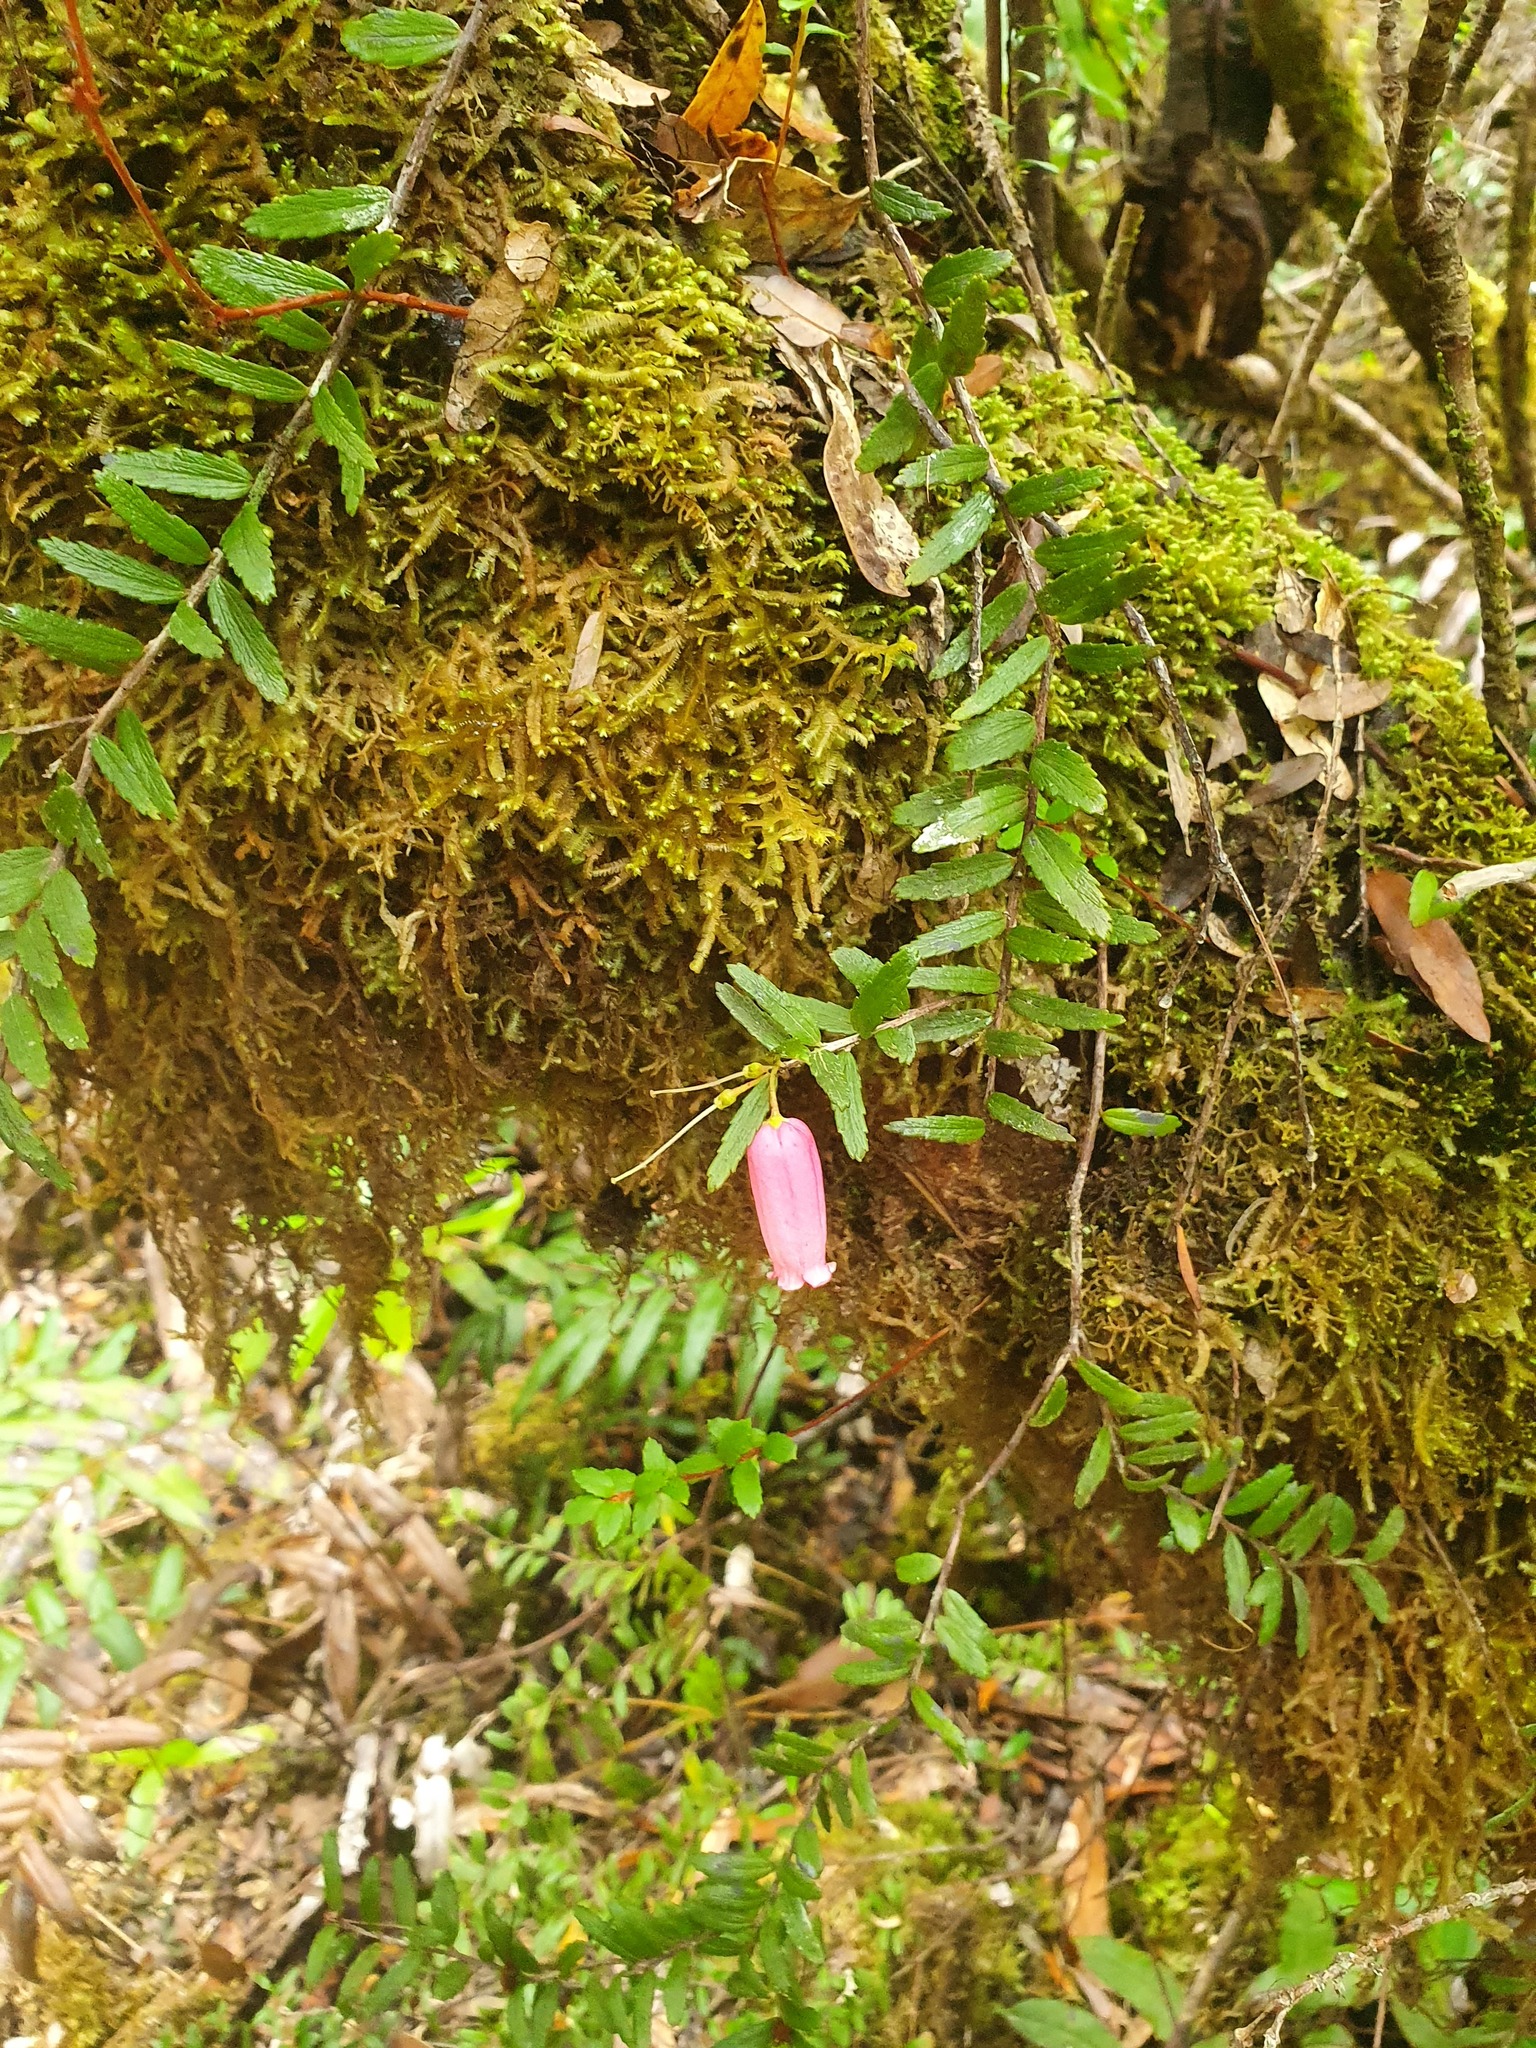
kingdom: Plantae
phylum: Tracheophyta
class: Magnoliopsida
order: Ericales
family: Ericaceae
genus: Prionotes
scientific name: Prionotes cerinthoides
